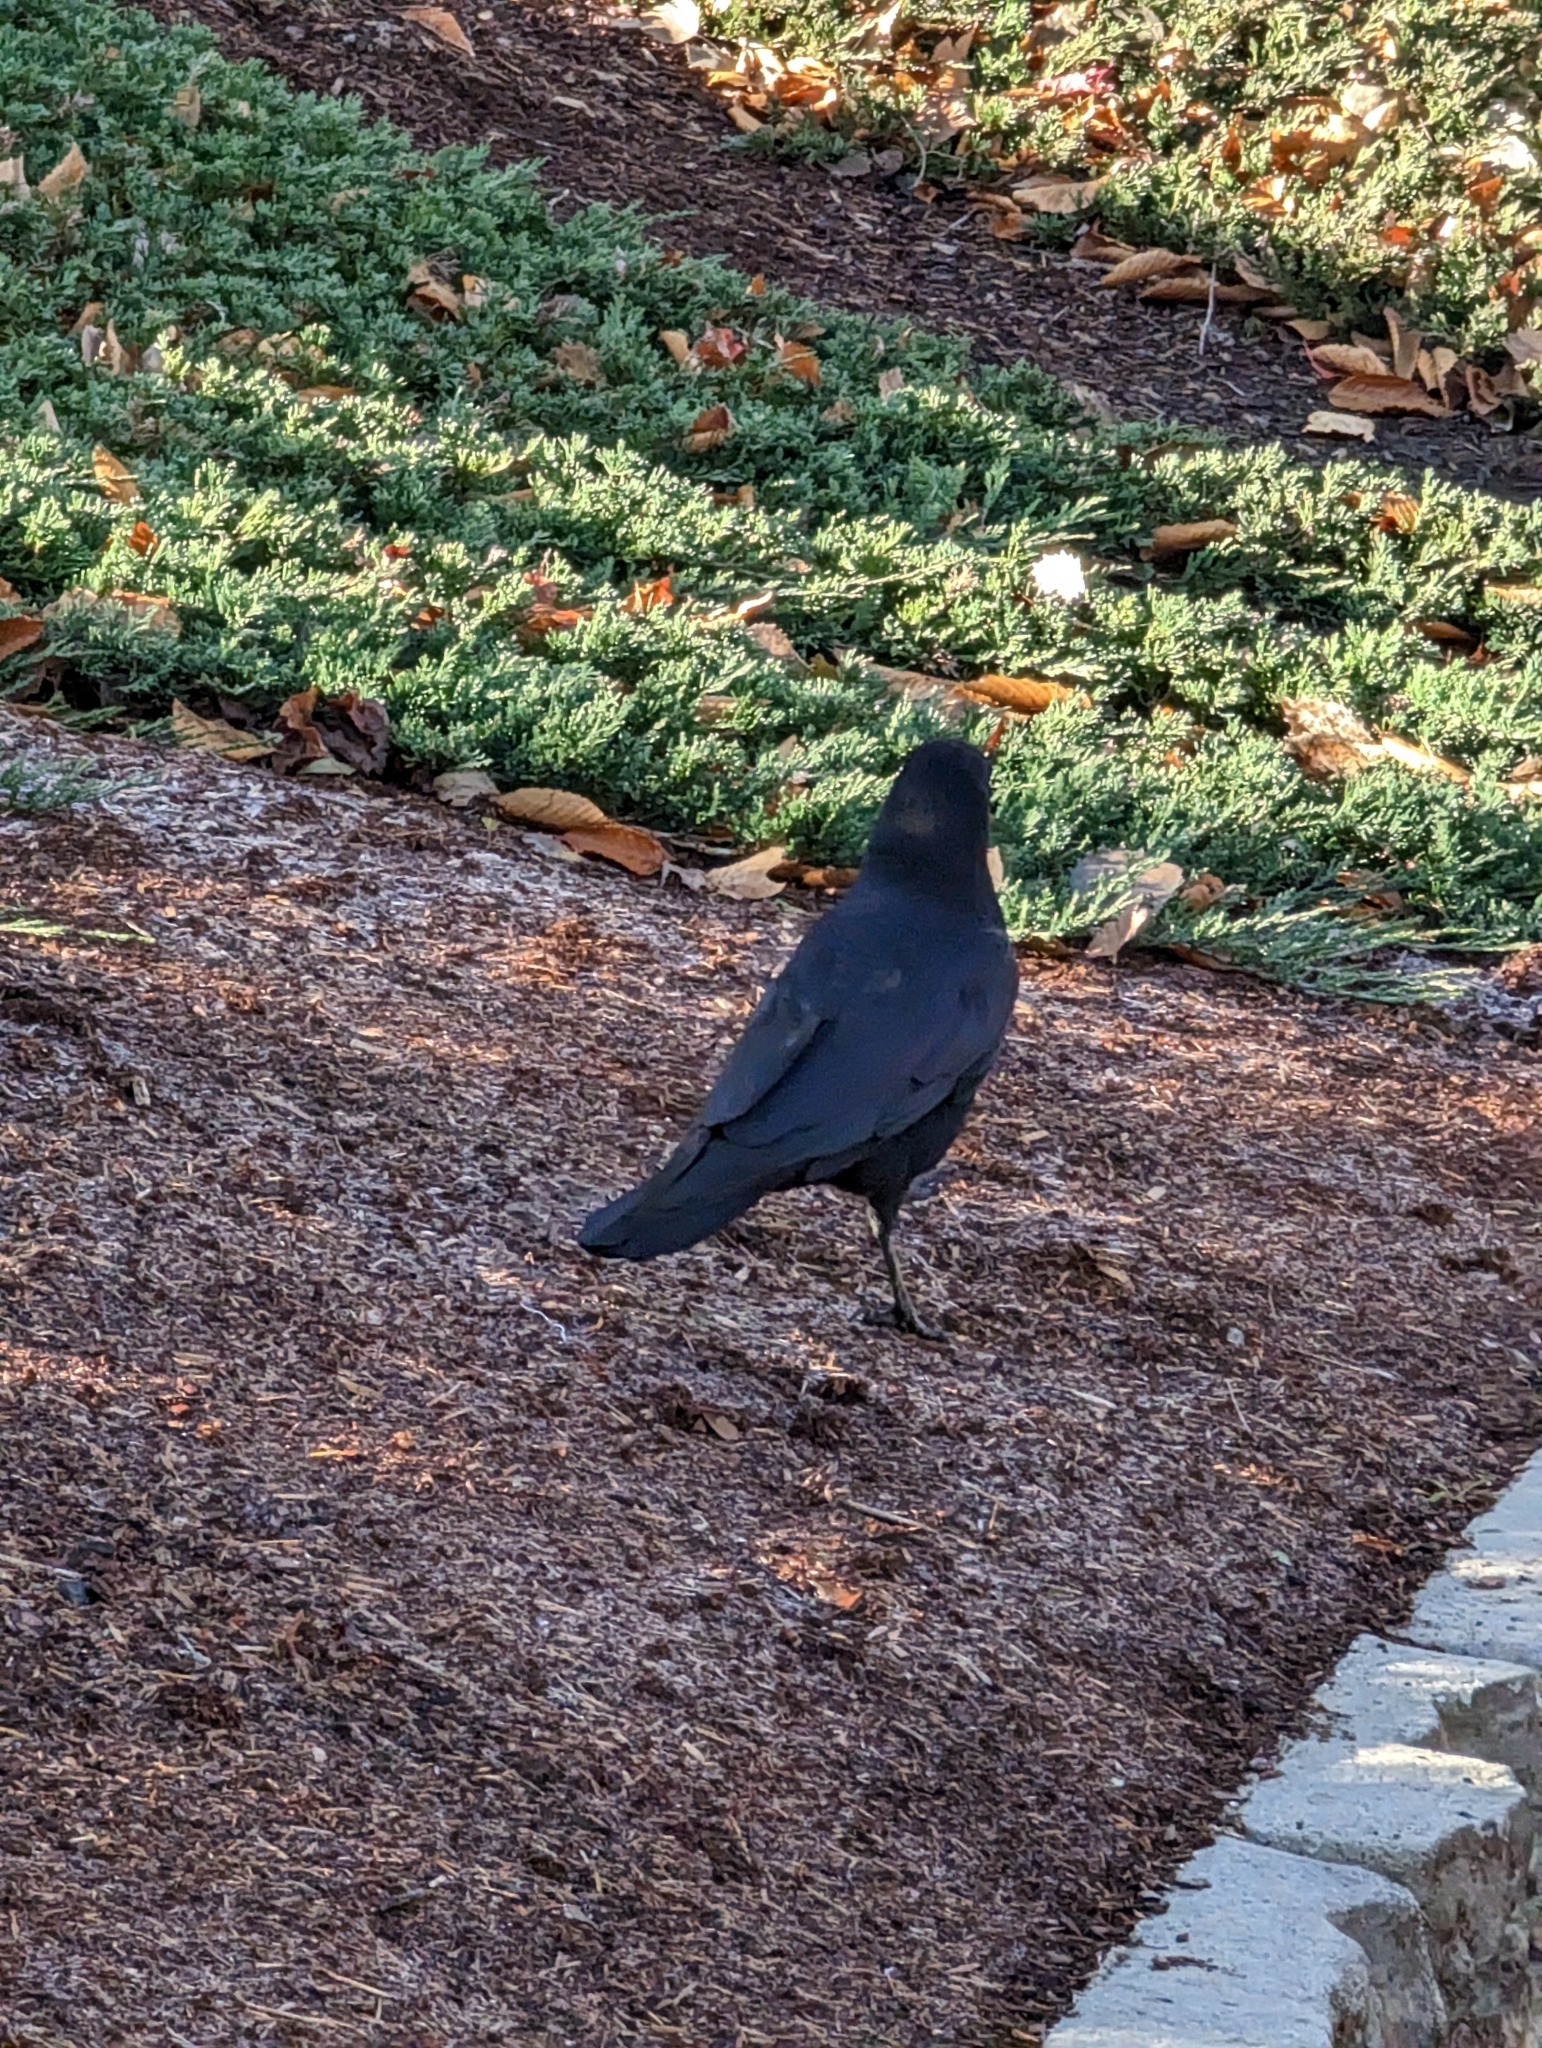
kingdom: Animalia
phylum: Chordata
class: Aves
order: Passeriformes
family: Corvidae
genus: Corvus
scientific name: Corvus brachyrhynchos
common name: American crow
